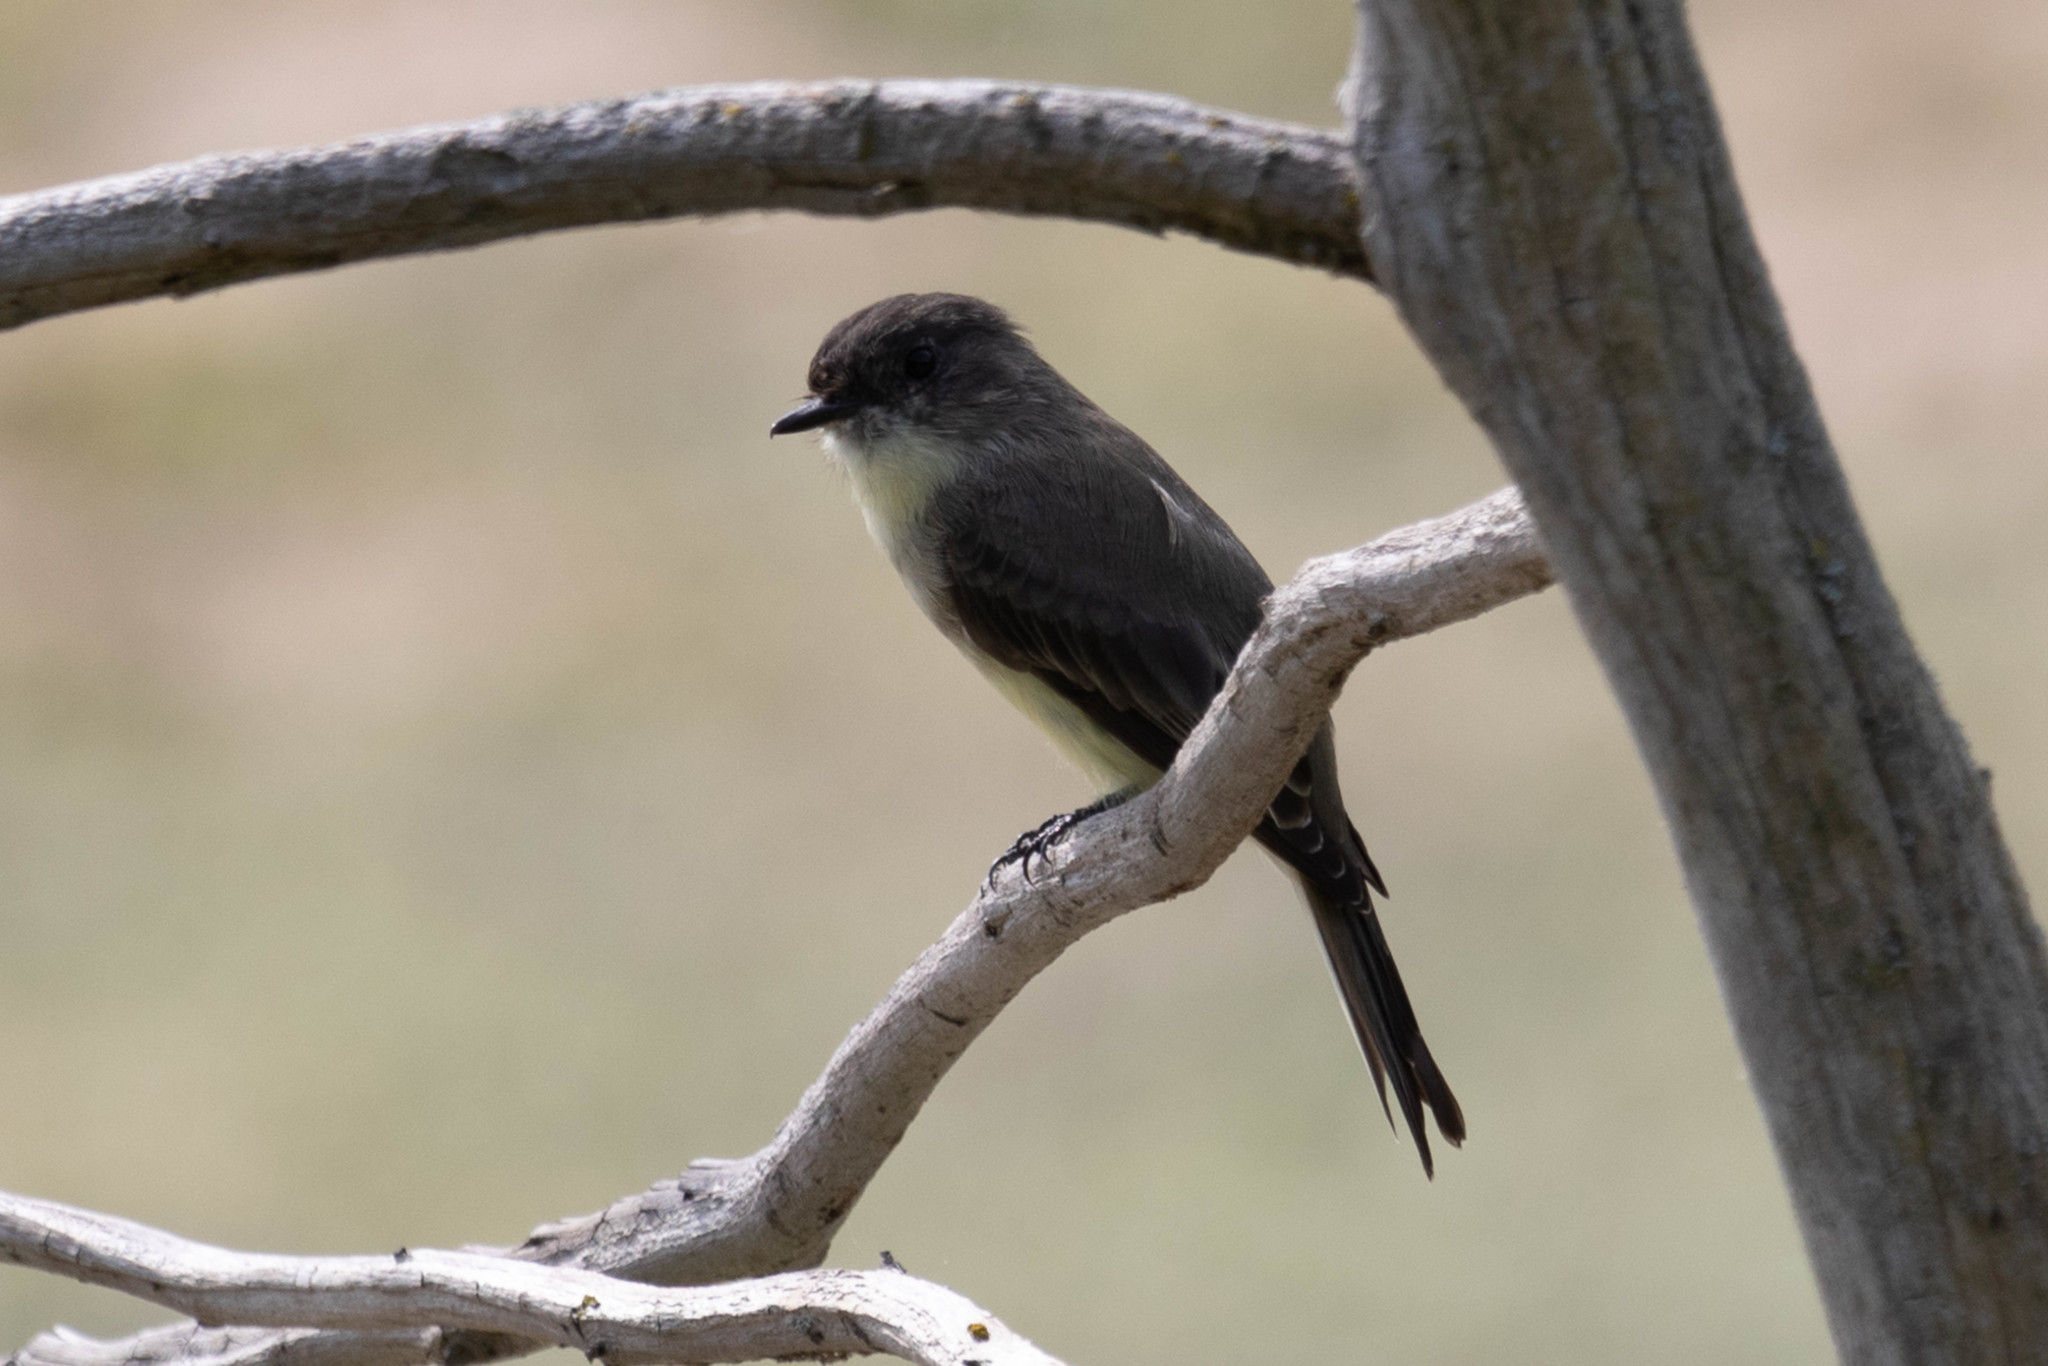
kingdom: Animalia
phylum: Chordata
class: Aves
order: Passeriformes
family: Tyrannidae
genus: Sayornis
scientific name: Sayornis phoebe
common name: Eastern phoebe
